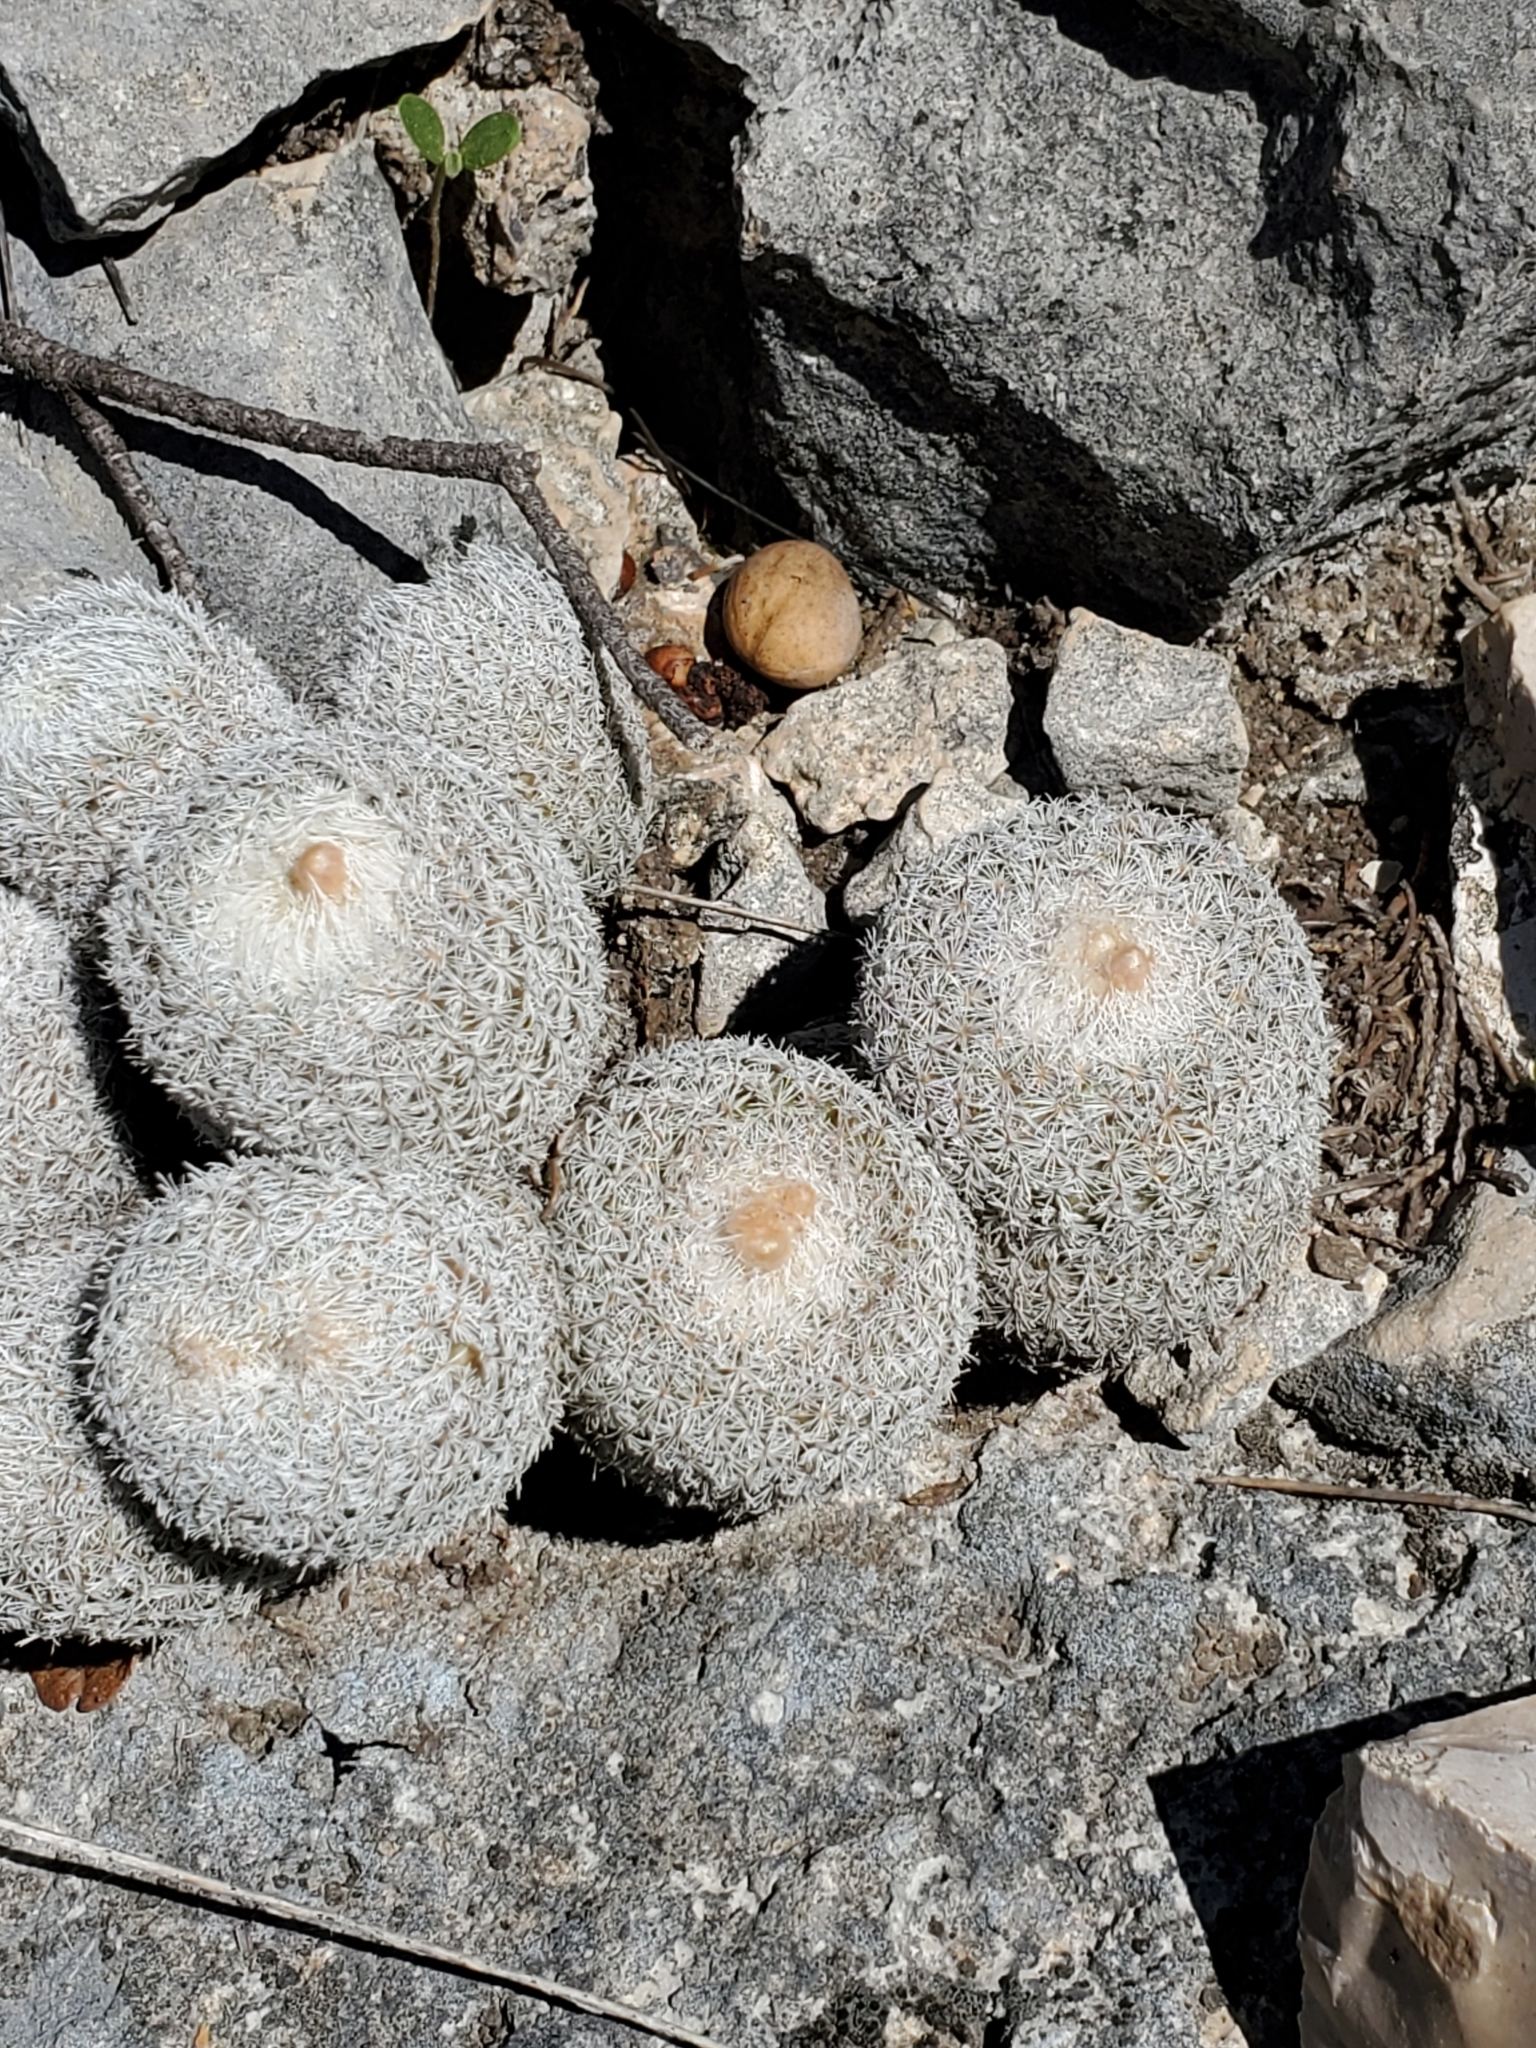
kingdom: Plantae
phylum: Tracheophyta
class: Magnoliopsida
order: Caryophyllales
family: Cactaceae
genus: Epithelantha
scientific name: Epithelantha micromeris
